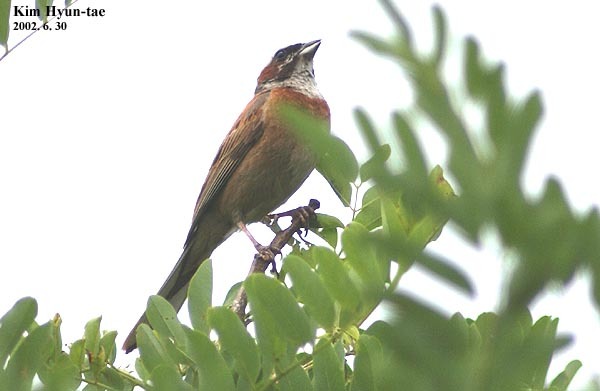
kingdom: Animalia
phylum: Chordata
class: Aves
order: Passeriformes
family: Emberizidae
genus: Emberiza
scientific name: Emberiza cioides
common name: Meadow bunting
